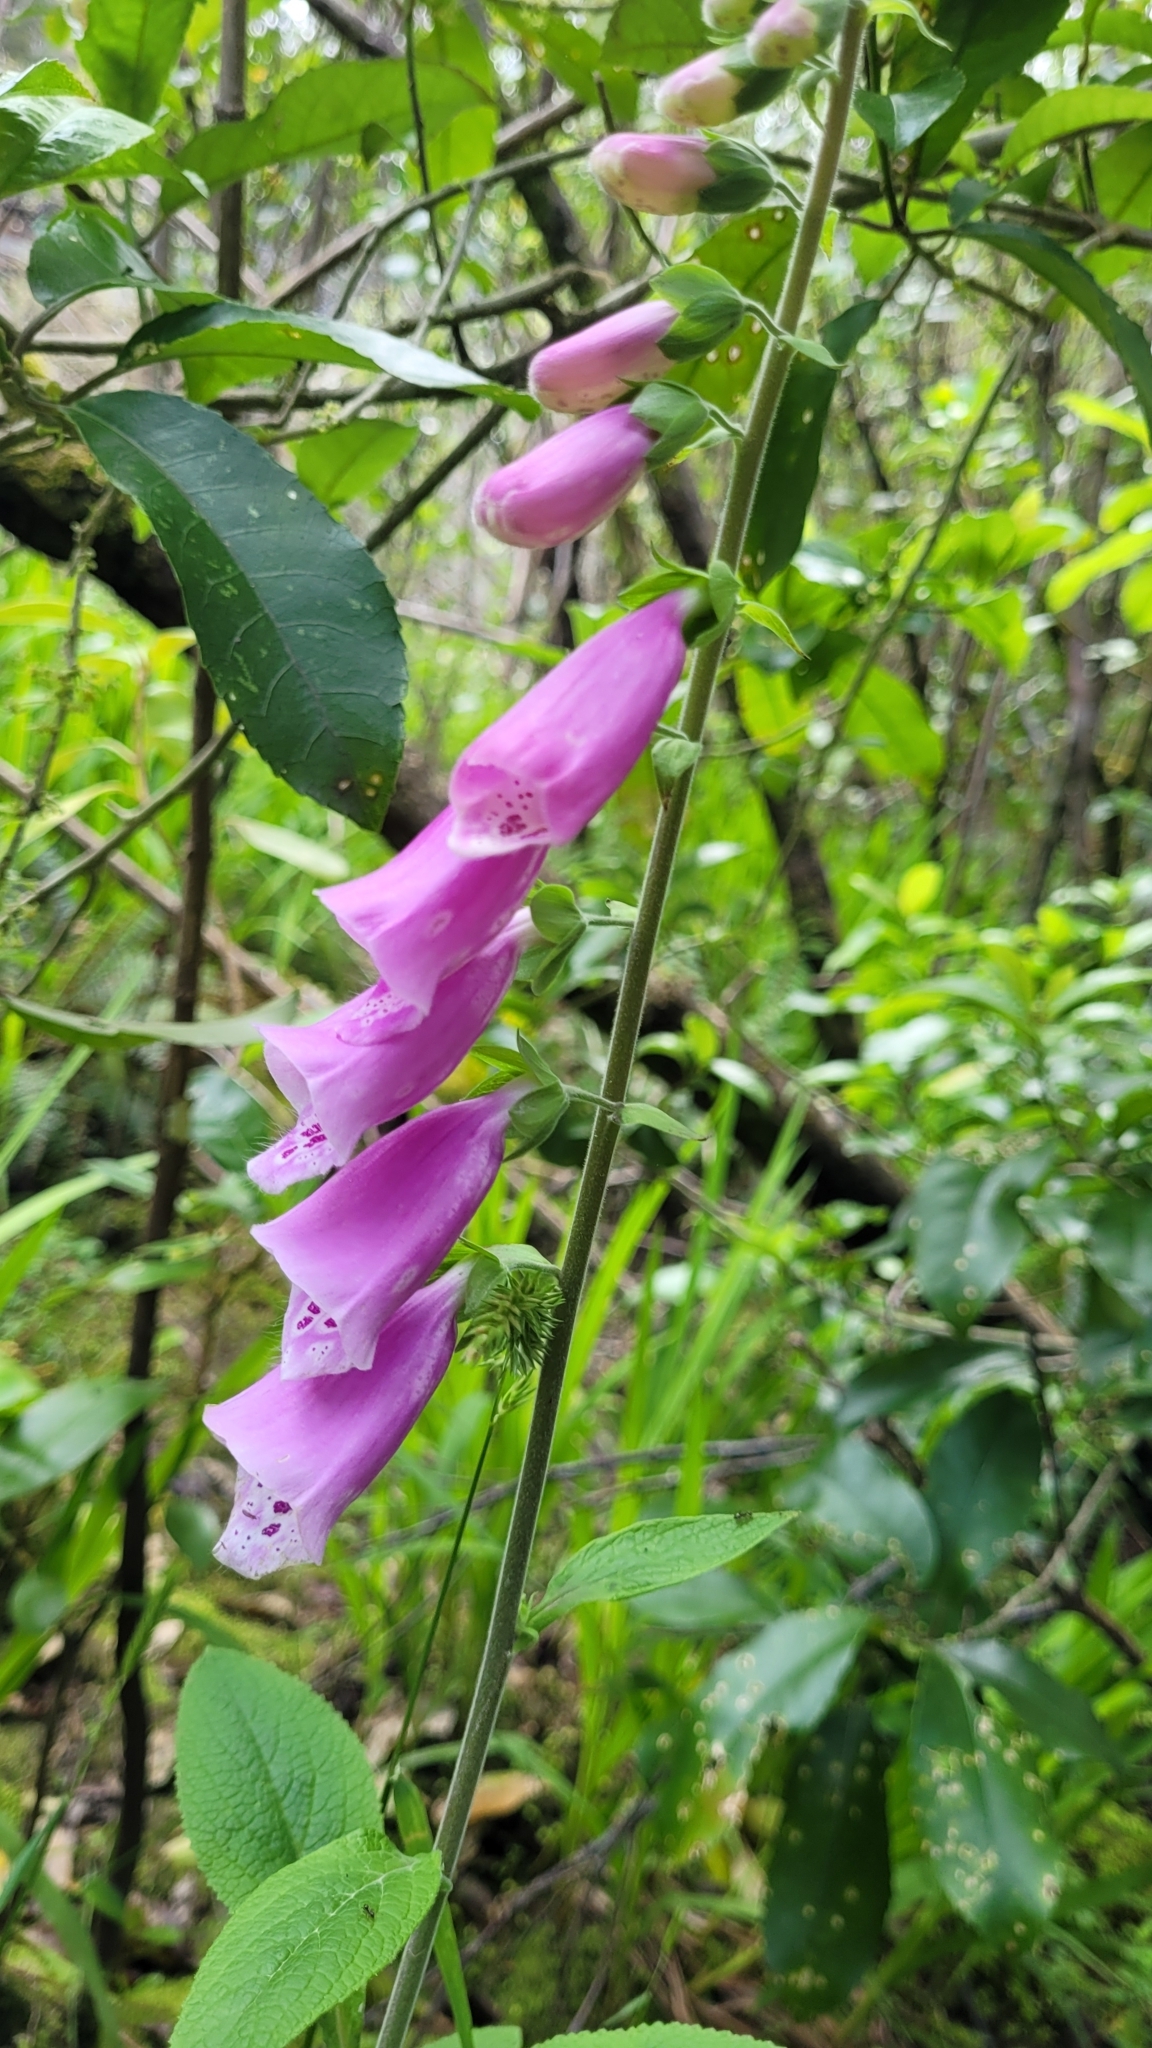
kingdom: Plantae
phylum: Tracheophyta
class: Magnoliopsida
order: Lamiales
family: Plantaginaceae
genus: Digitalis
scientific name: Digitalis purpurea
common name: Foxglove
